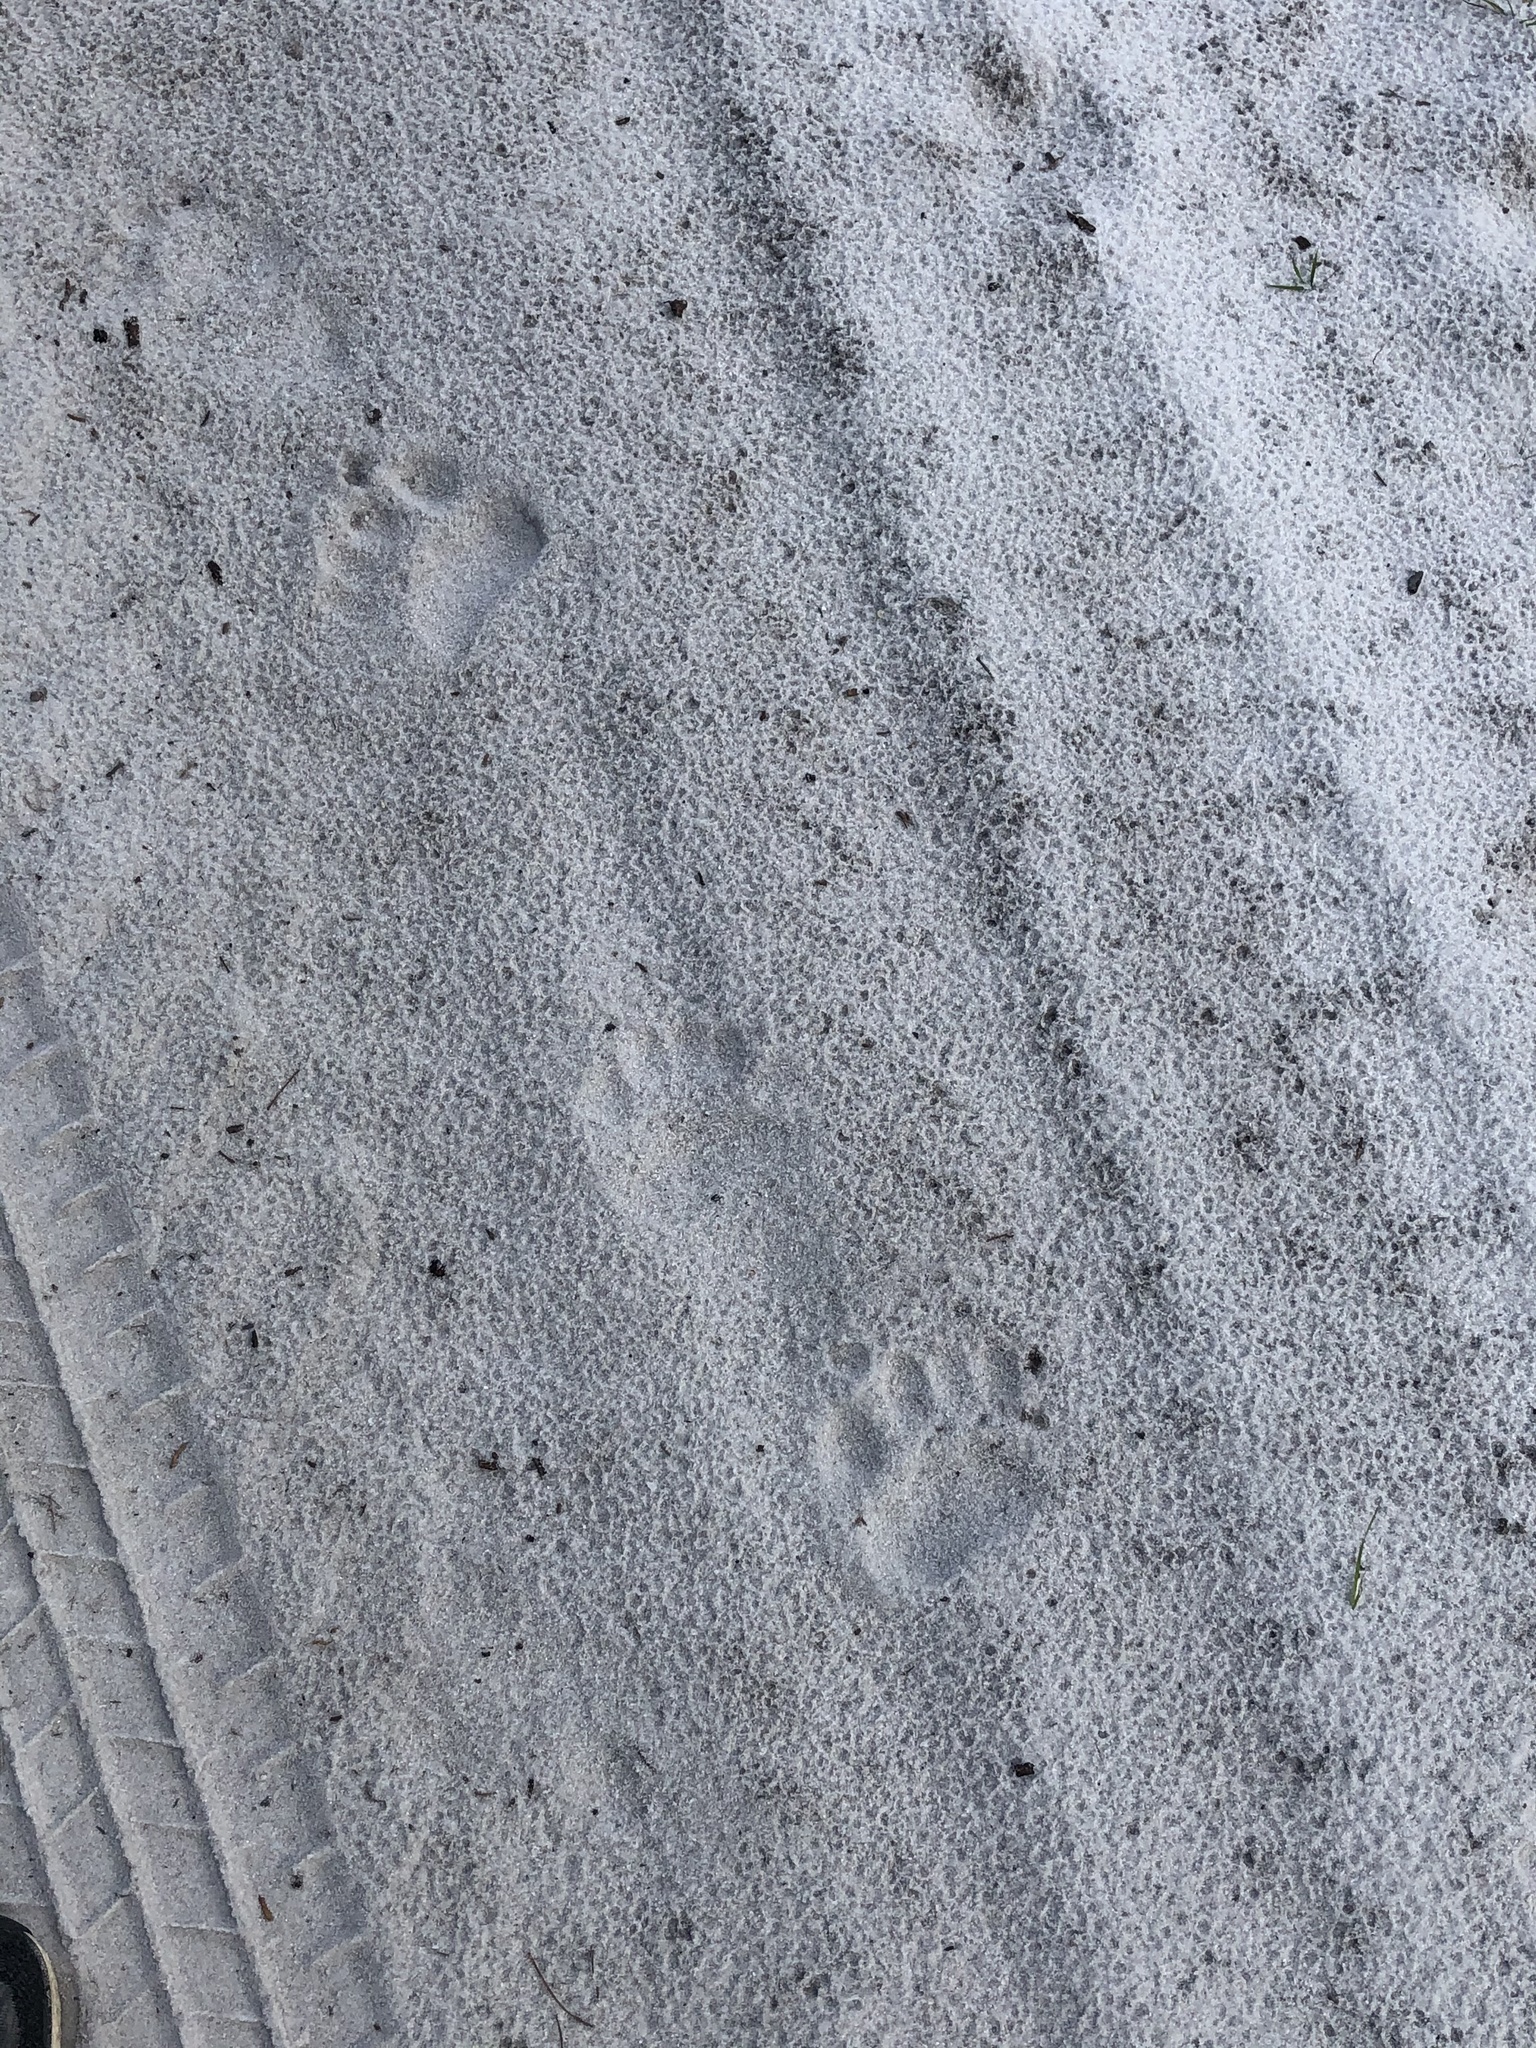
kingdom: Animalia
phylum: Chordata
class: Mammalia
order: Carnivora
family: Ursidae
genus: Ursus
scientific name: Ursus americanus
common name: American black bear
